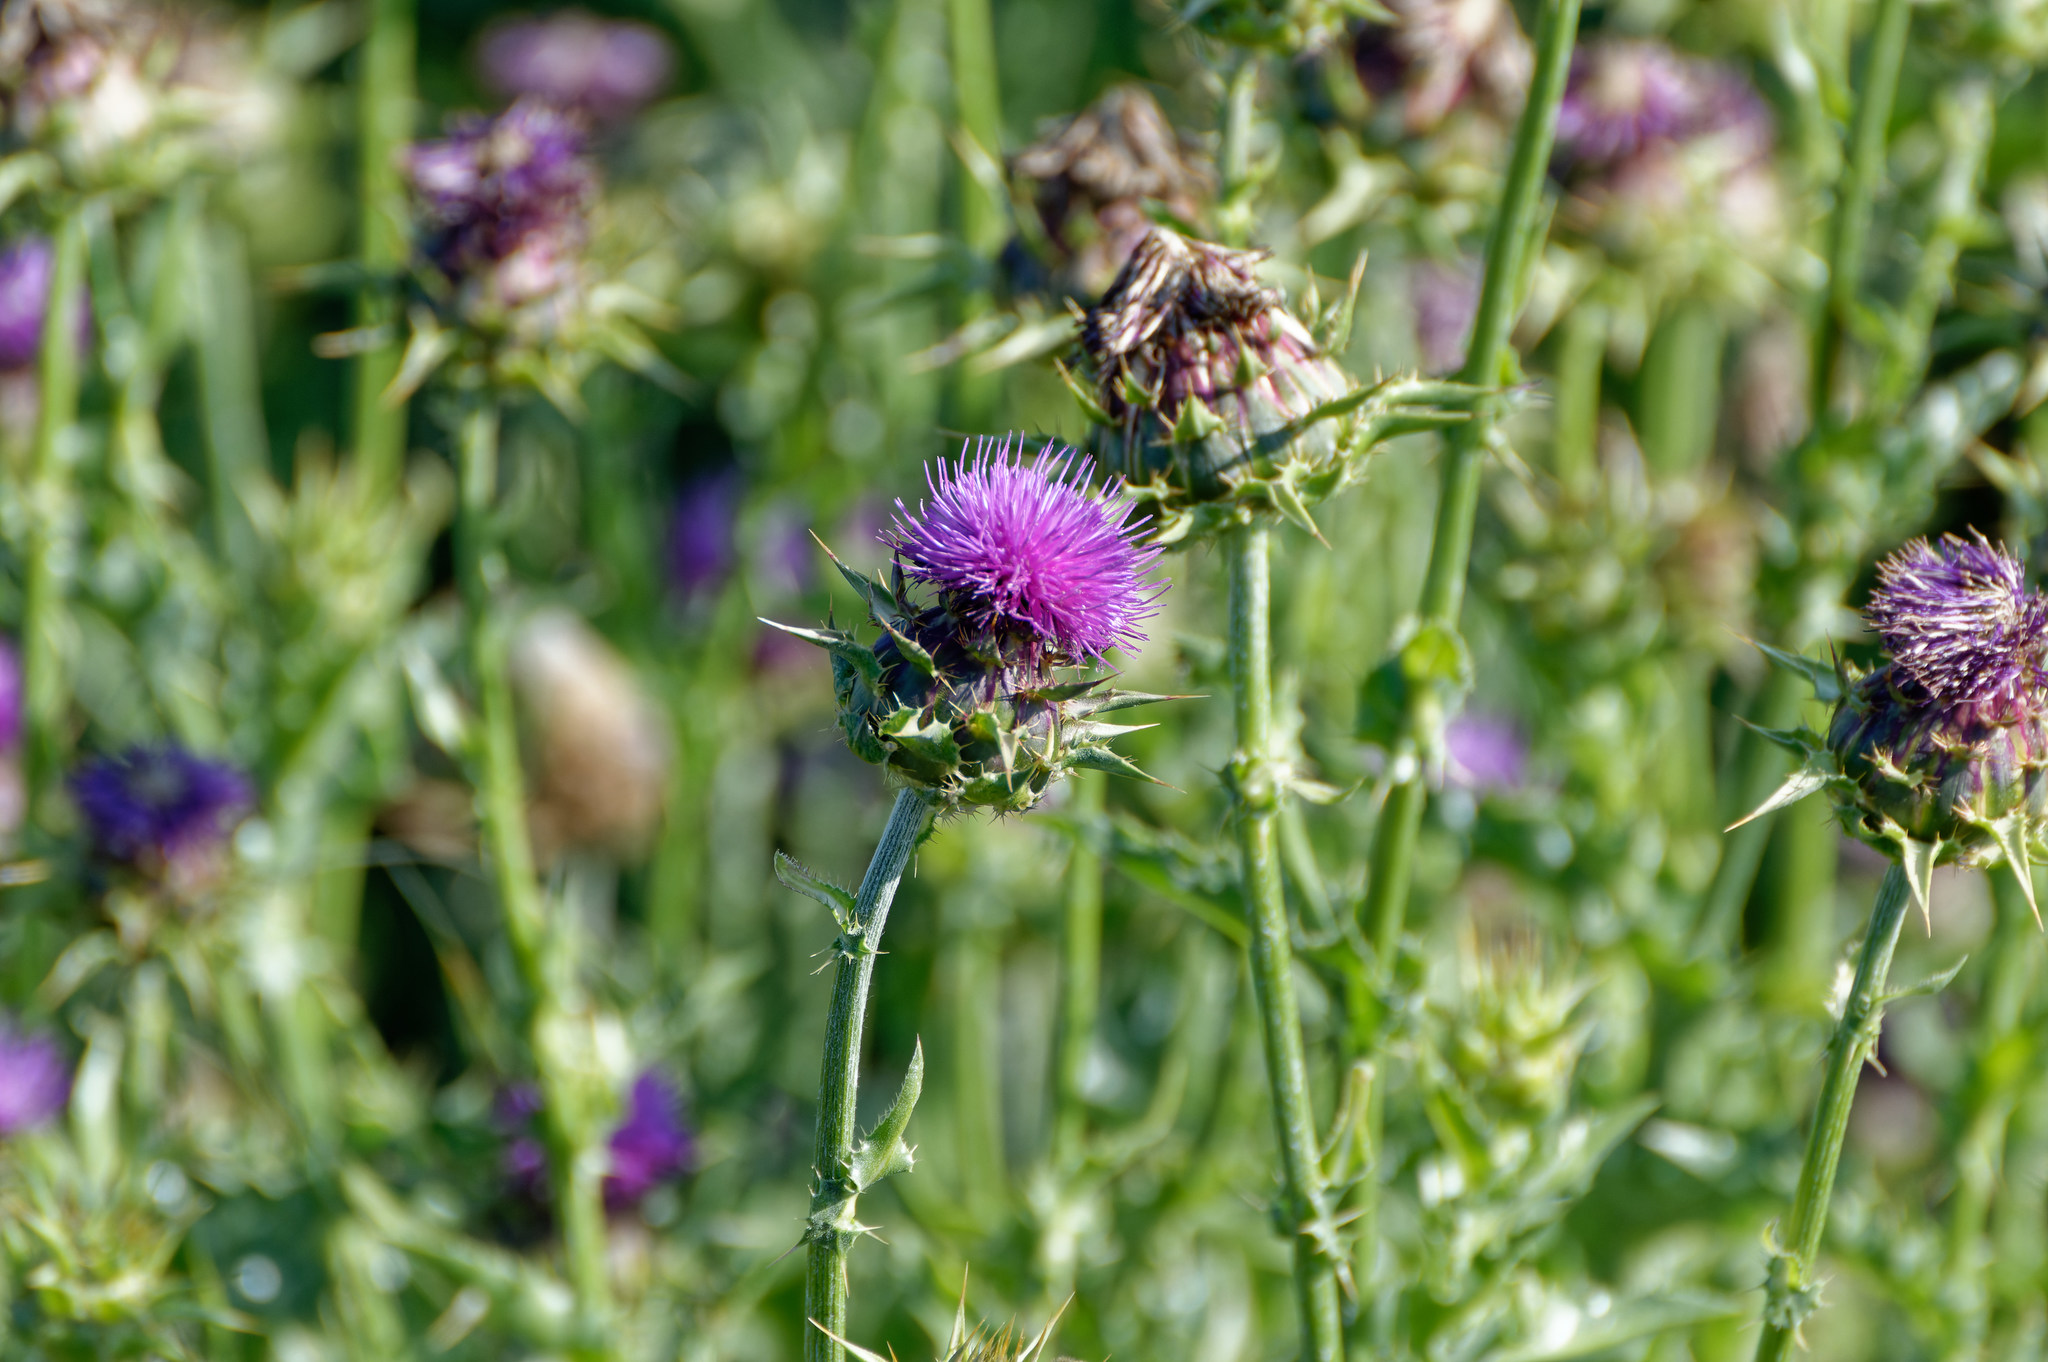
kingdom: Plantae
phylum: Tracheophyta
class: Magnoliopsida
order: Asterales
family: Asteraceae
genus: Silybum
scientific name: Silybum marianum
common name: Milk thistle
